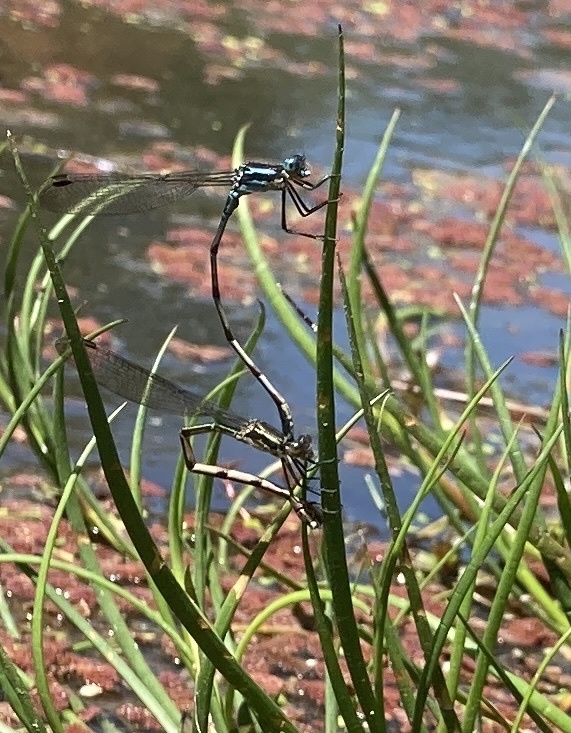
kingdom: Animalia
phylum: Arthropoda
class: Insecta
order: Odonata
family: Lestidae
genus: Austrolestes
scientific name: Austrolestes colensonis
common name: Blue damselfly
